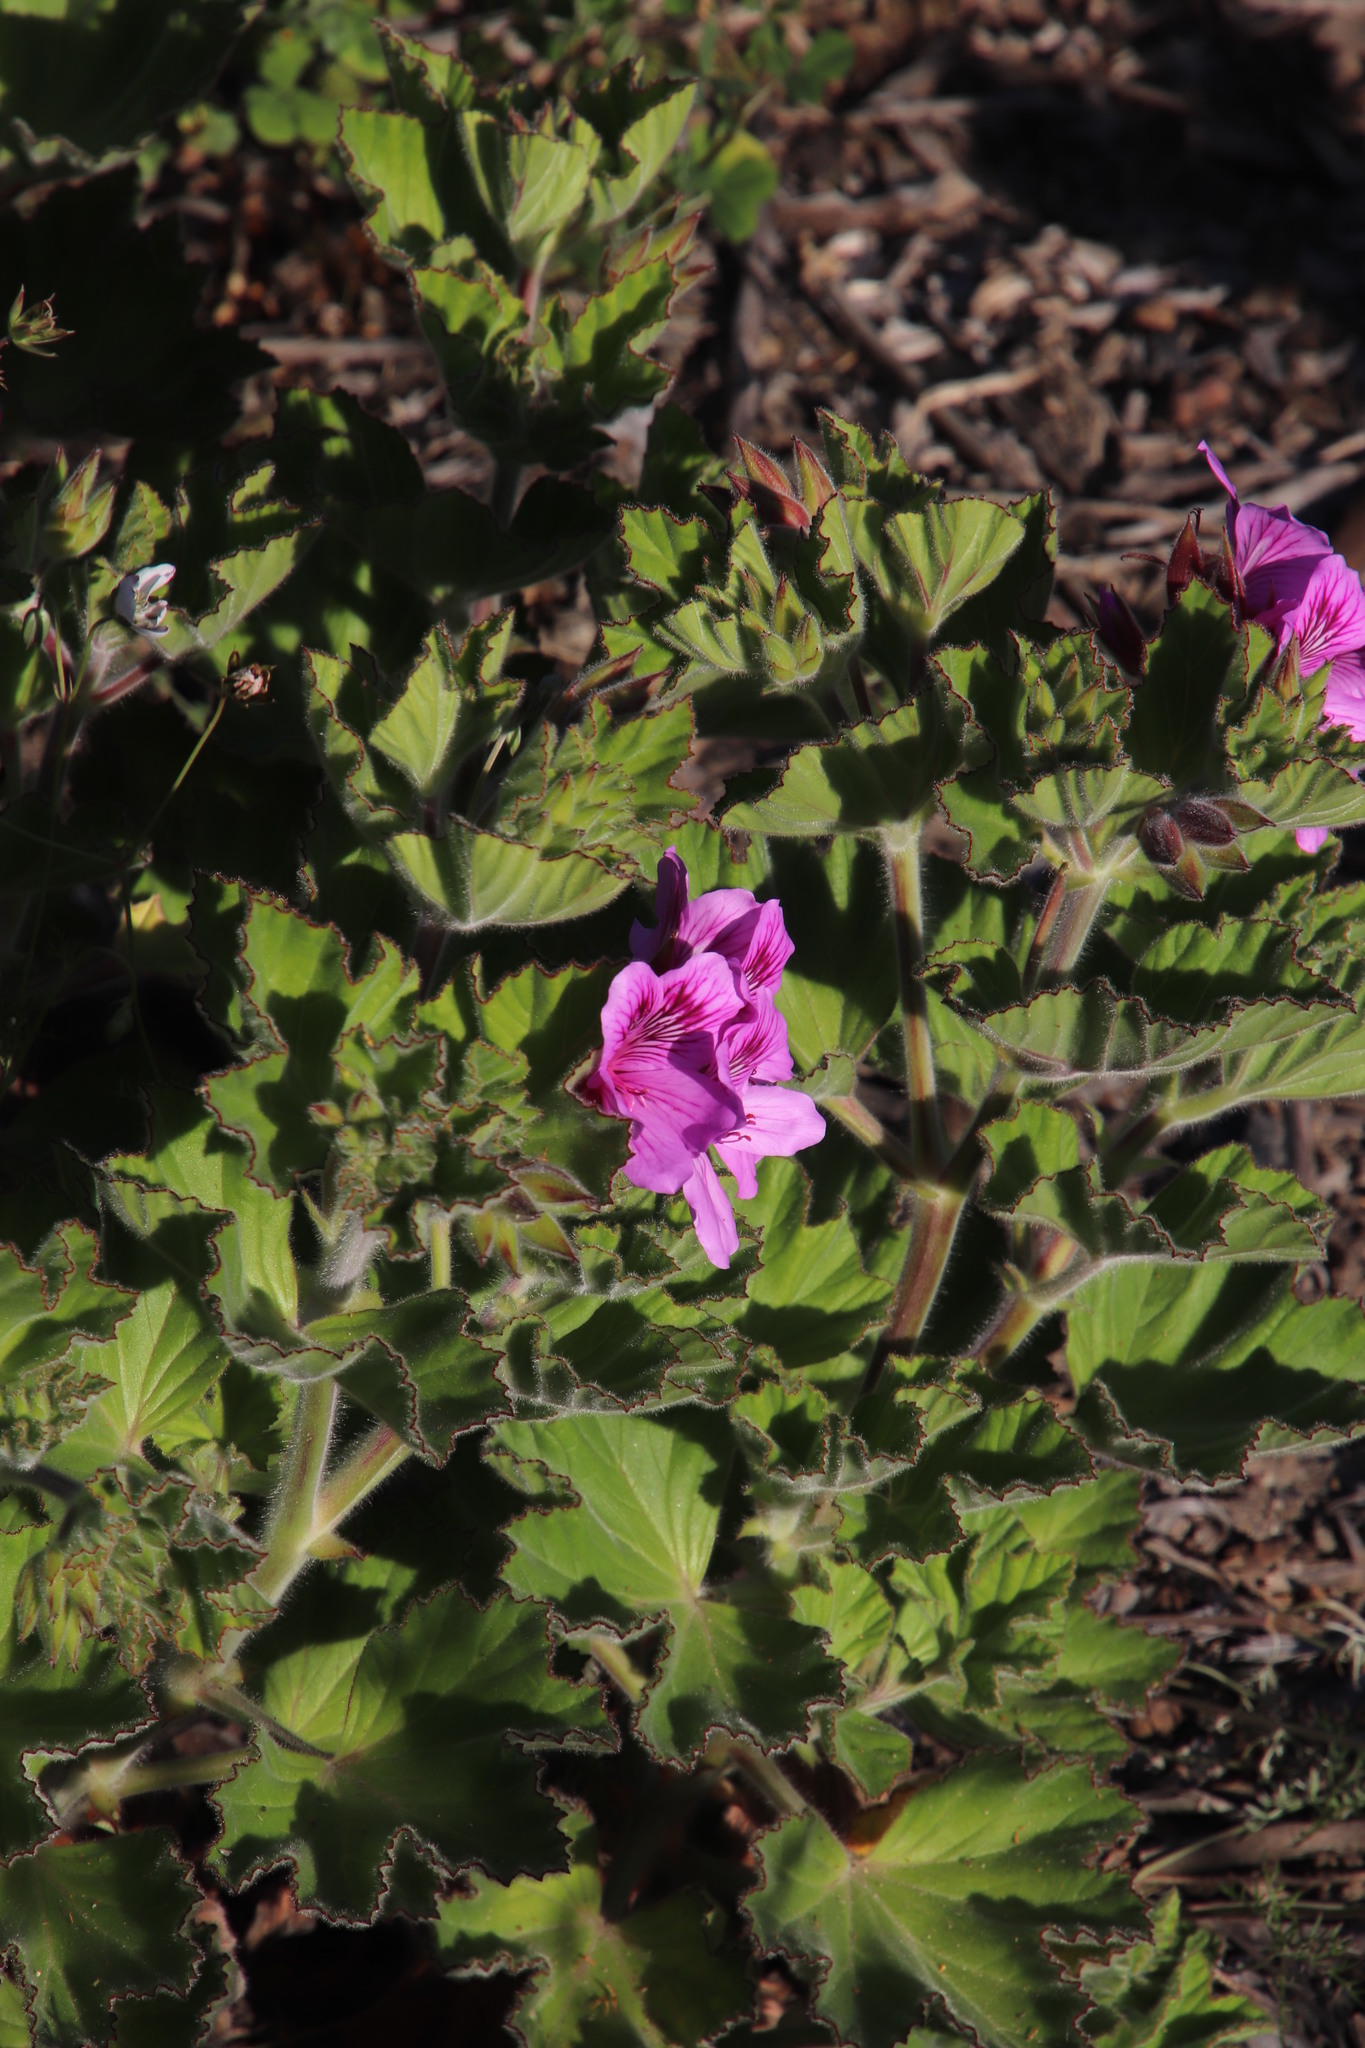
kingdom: Plantae
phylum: Tracheophyta
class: Magnoliopsida
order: Geraniales
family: Geraniaceae
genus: Pelargonium
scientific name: Pelargonium cucullatum
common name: Tree pelargonium
